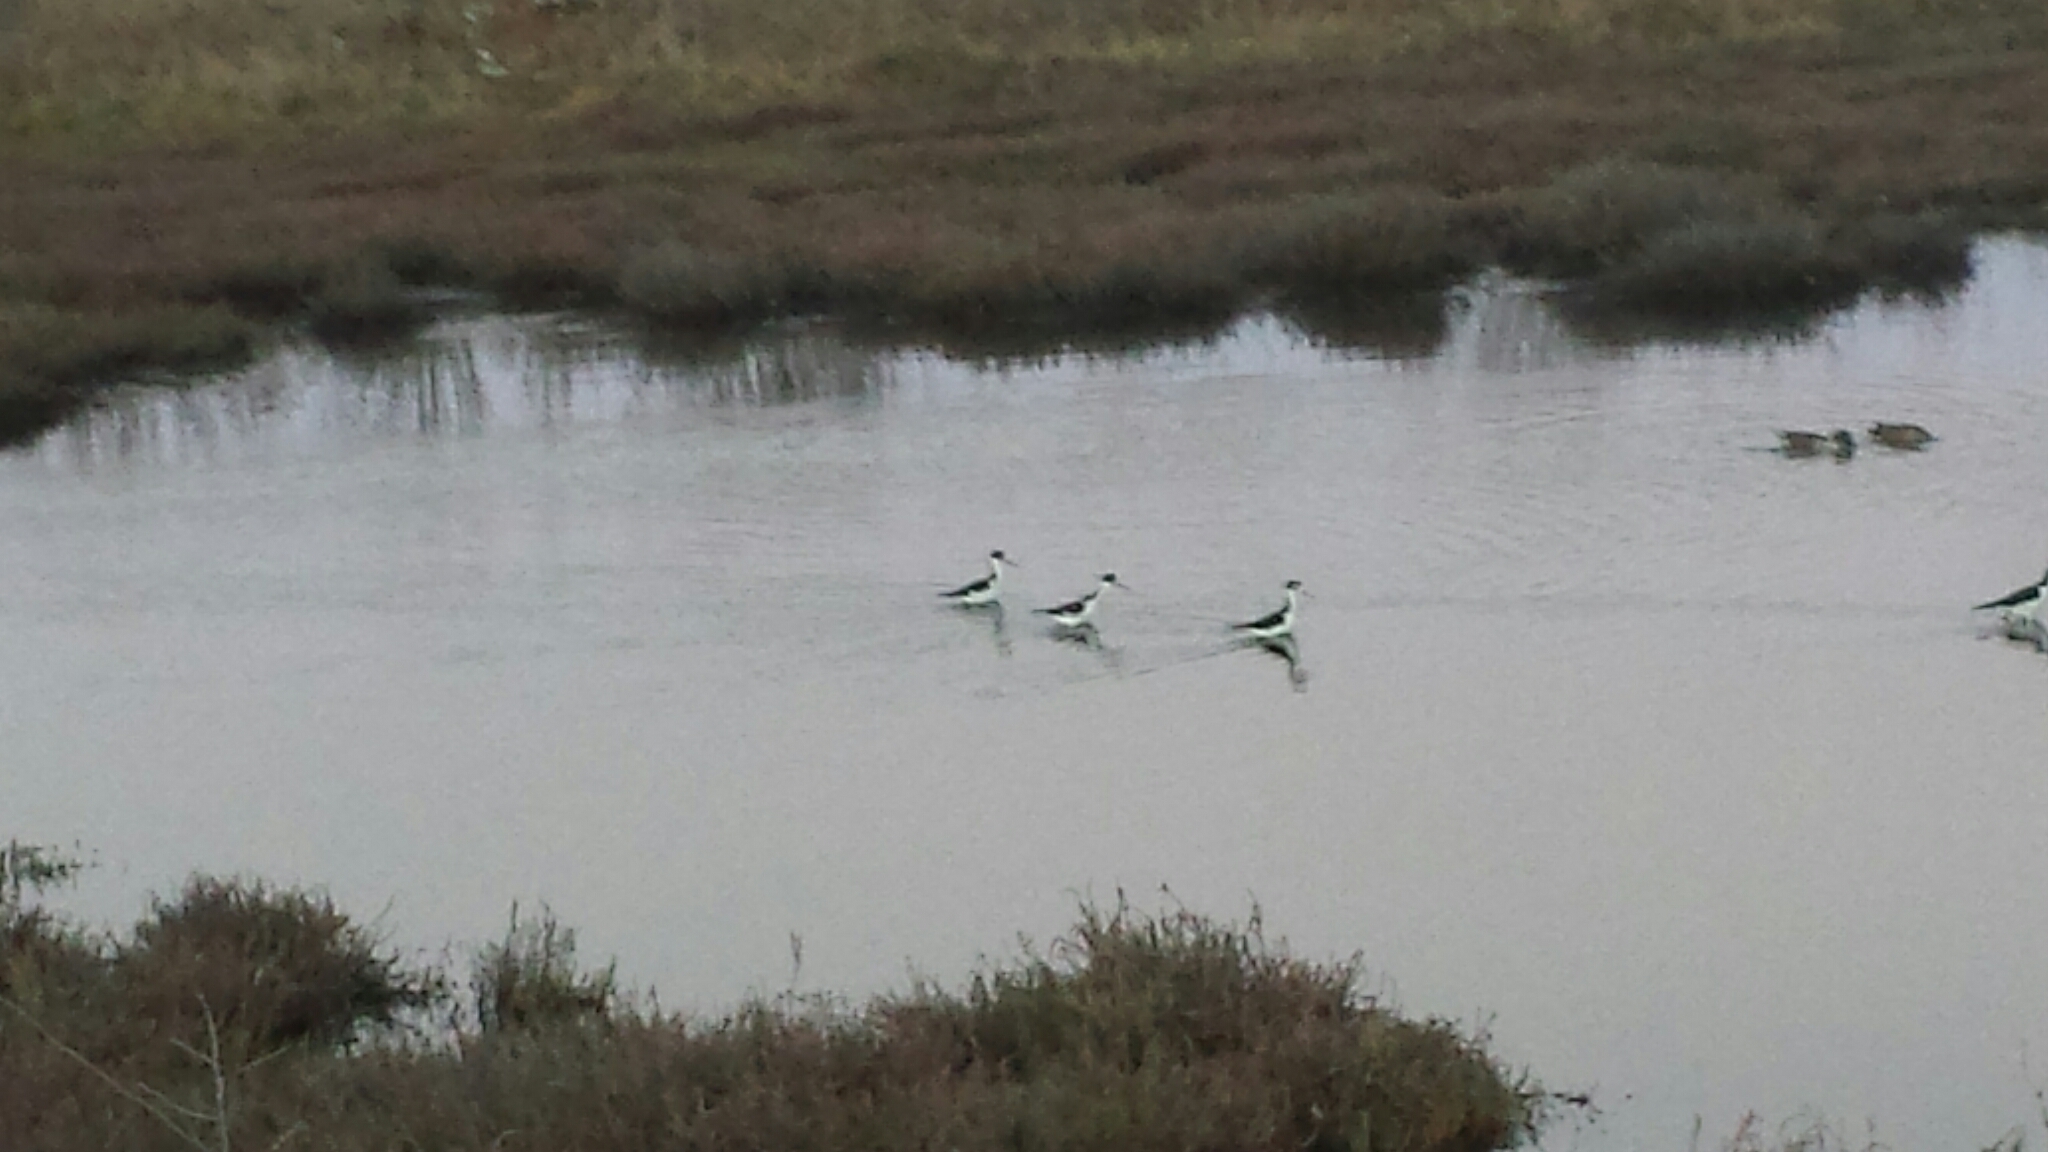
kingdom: Animalia
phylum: Chordata
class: Aves
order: Charadriiformes
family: Recurvirostridae
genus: Himantopus
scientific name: Himantopus mexicanus
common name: Black-necked stilt
